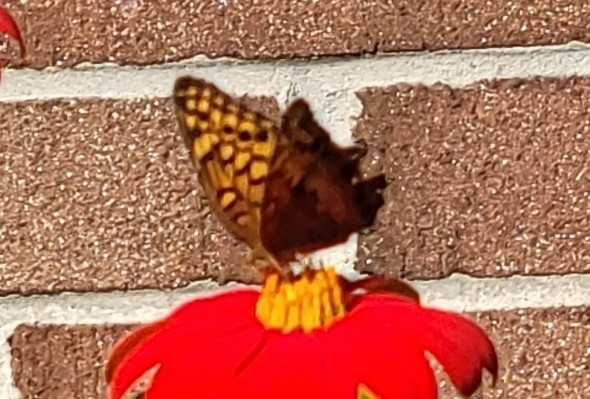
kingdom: Animalia
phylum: Arthropoda
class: Insecta
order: Lepidoptera
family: Nymphalidae
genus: Euptoieta
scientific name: Euptoieta claudia
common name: Variegated fritillary
